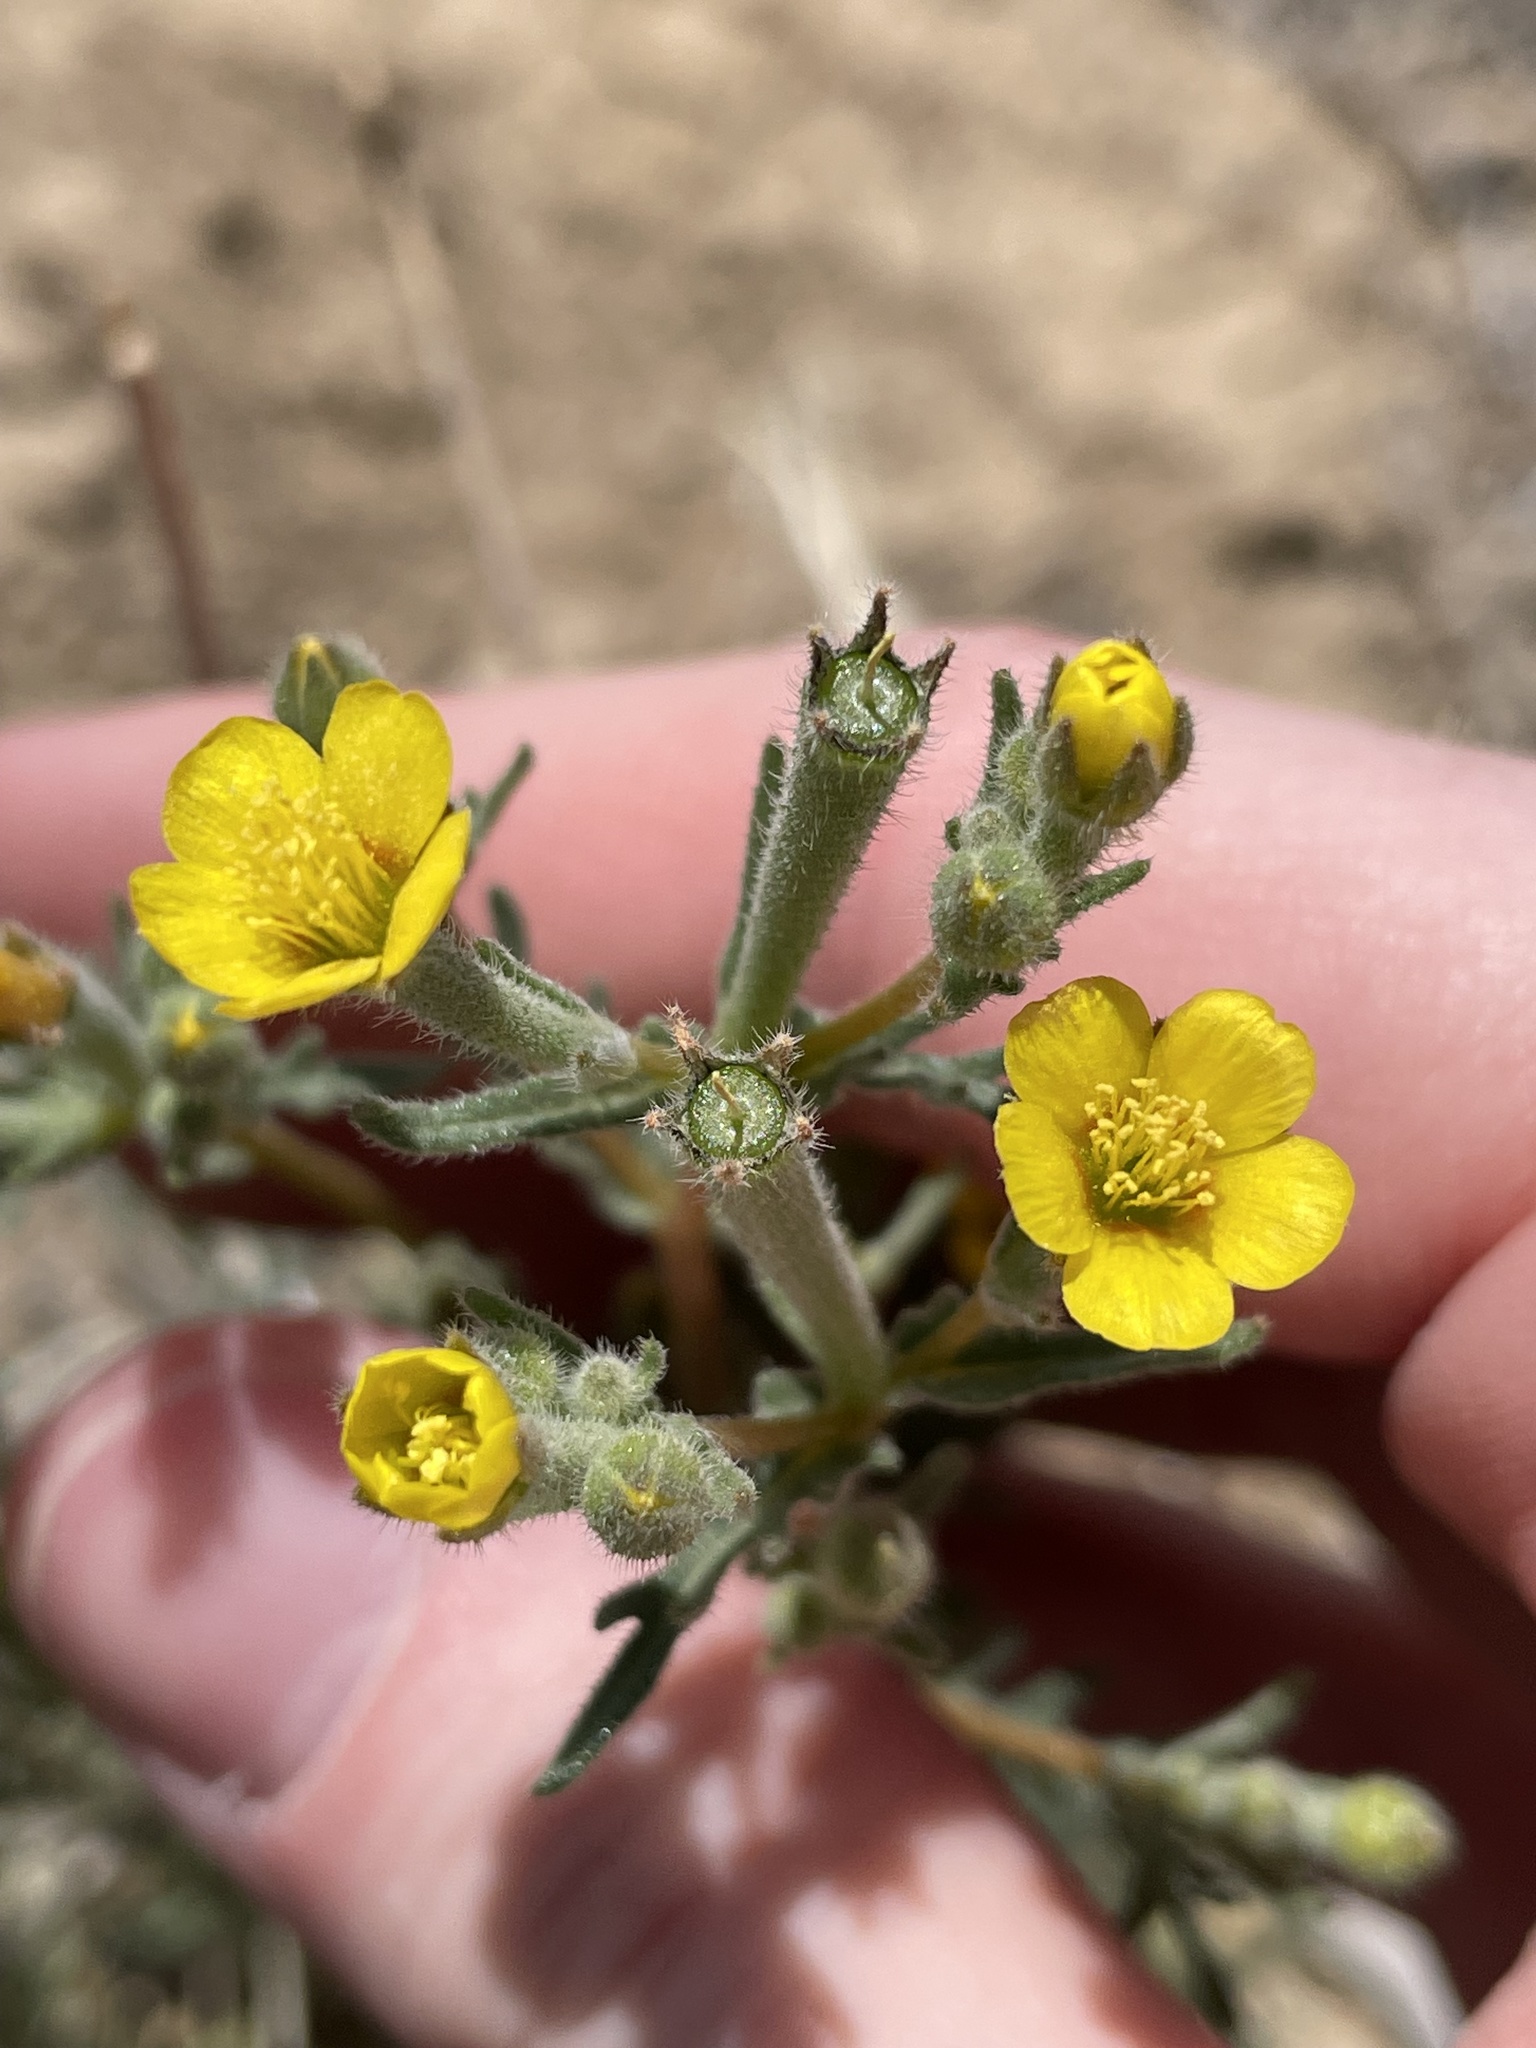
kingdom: Plantae
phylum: Tracheophyta
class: Magnoliopsida
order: Cornales
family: Loasaceae
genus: Mentzelia
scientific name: Mentzelia albicaulis
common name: White-stem blazingstar
